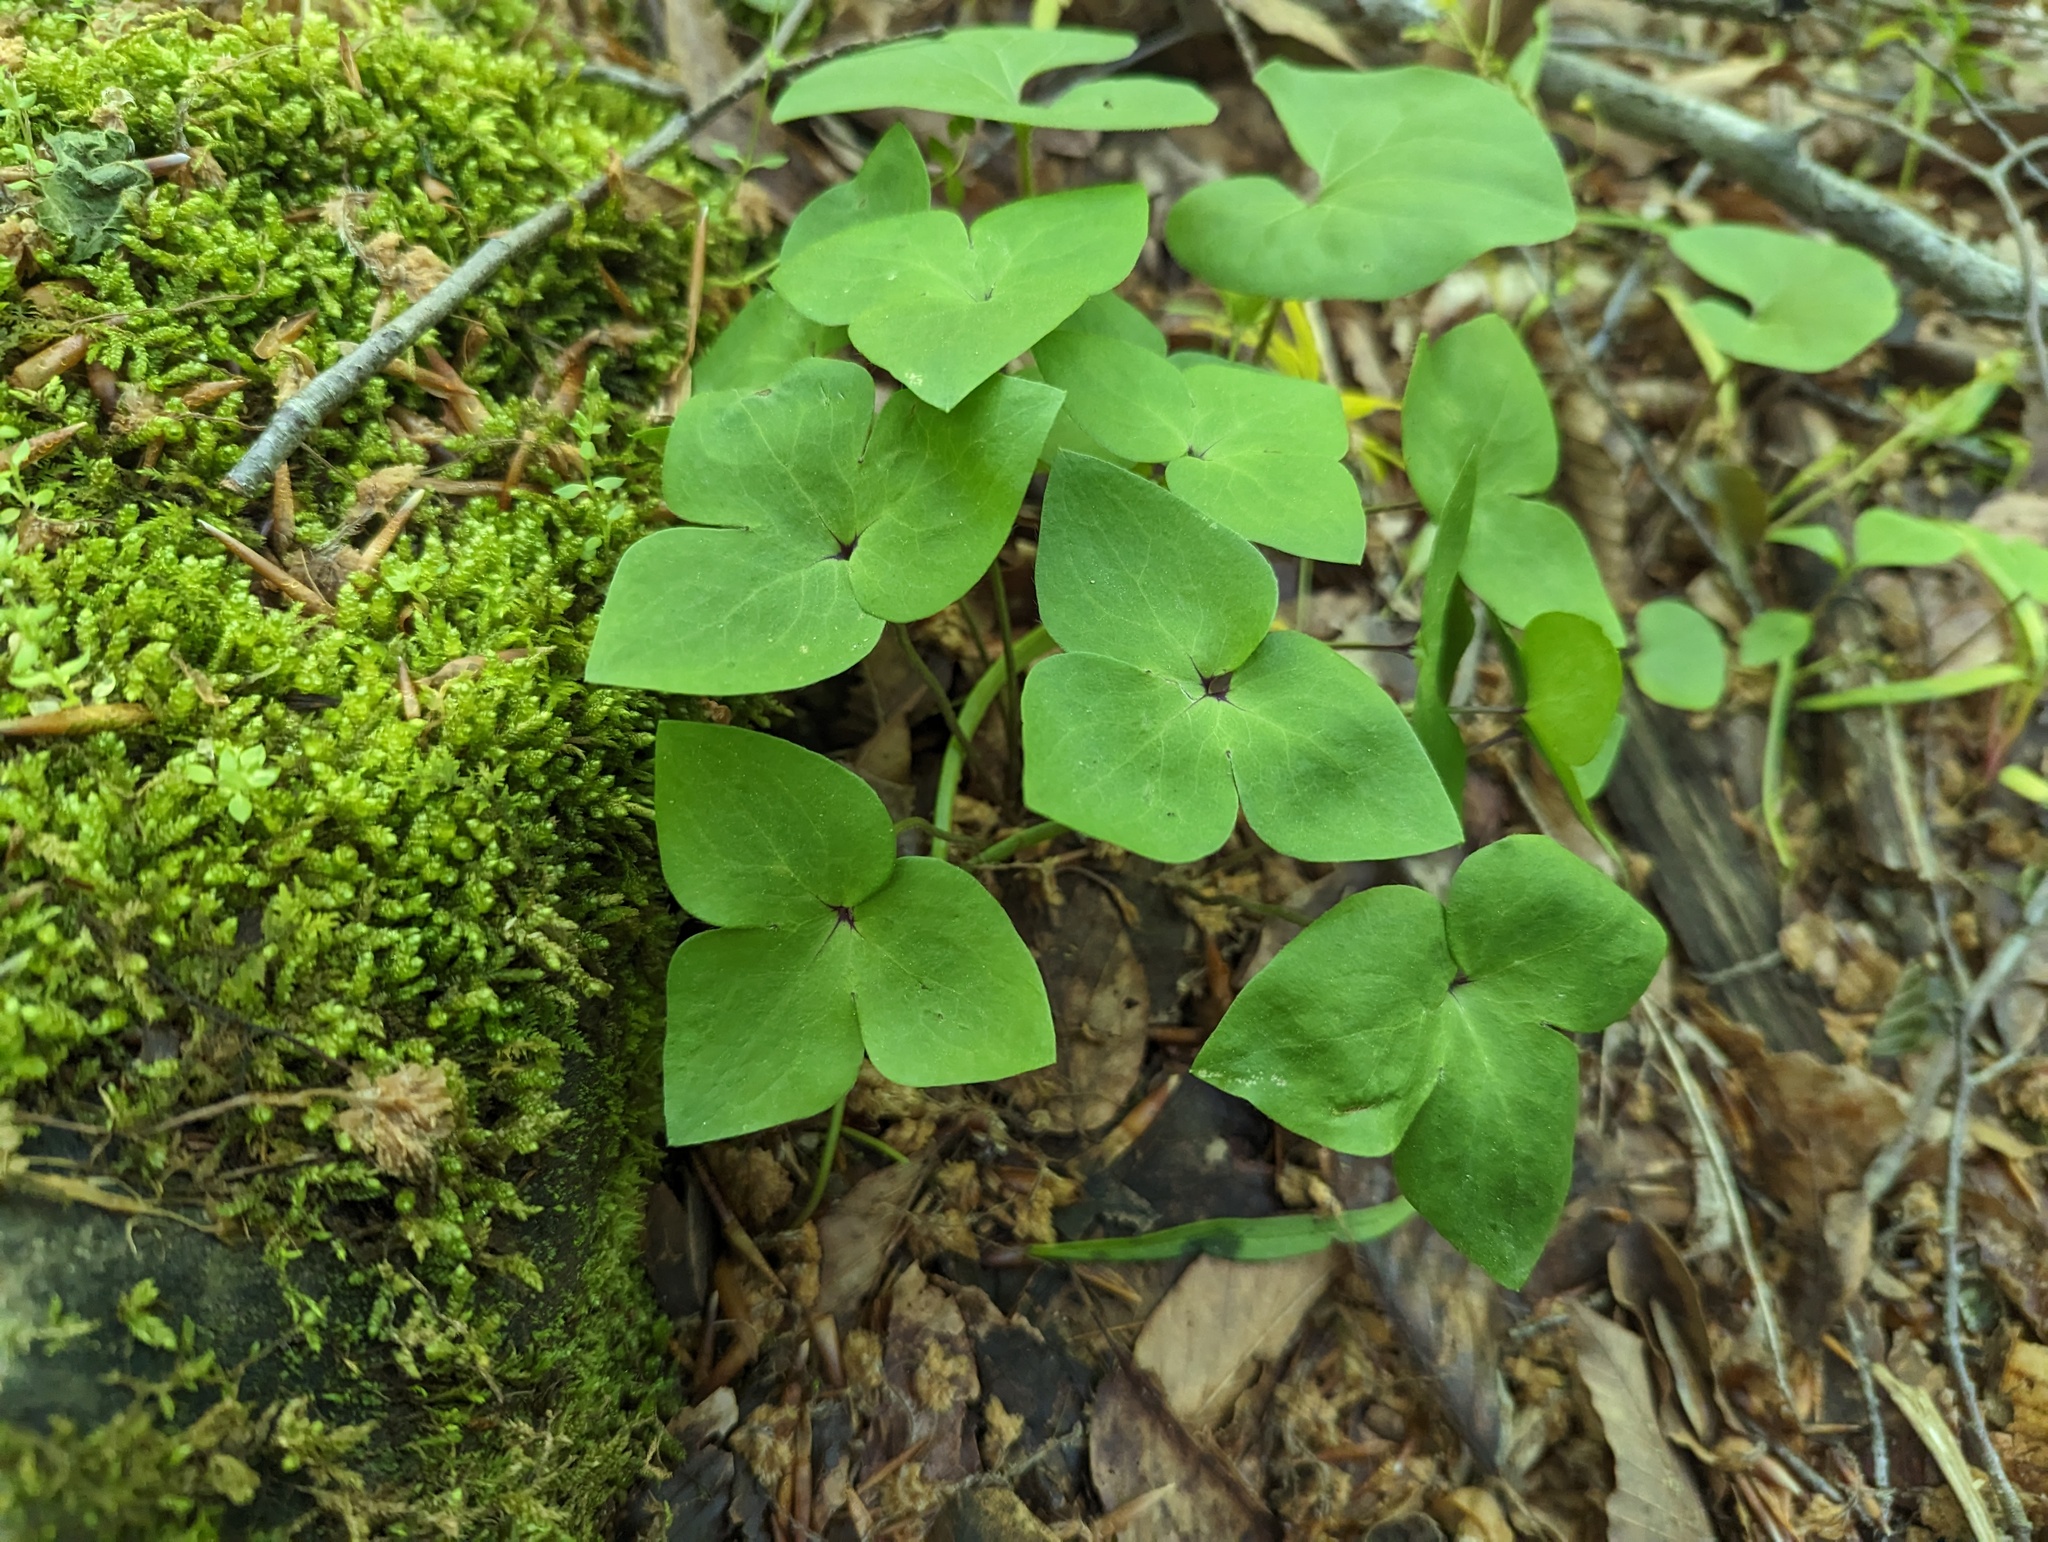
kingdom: Plantae
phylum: Tracheophyta
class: Magnoliopsida
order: Ranunculales
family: Ranunculaceae
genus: Hepatica
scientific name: Hepatica acutiloba
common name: Sharp-lobed hepatica
